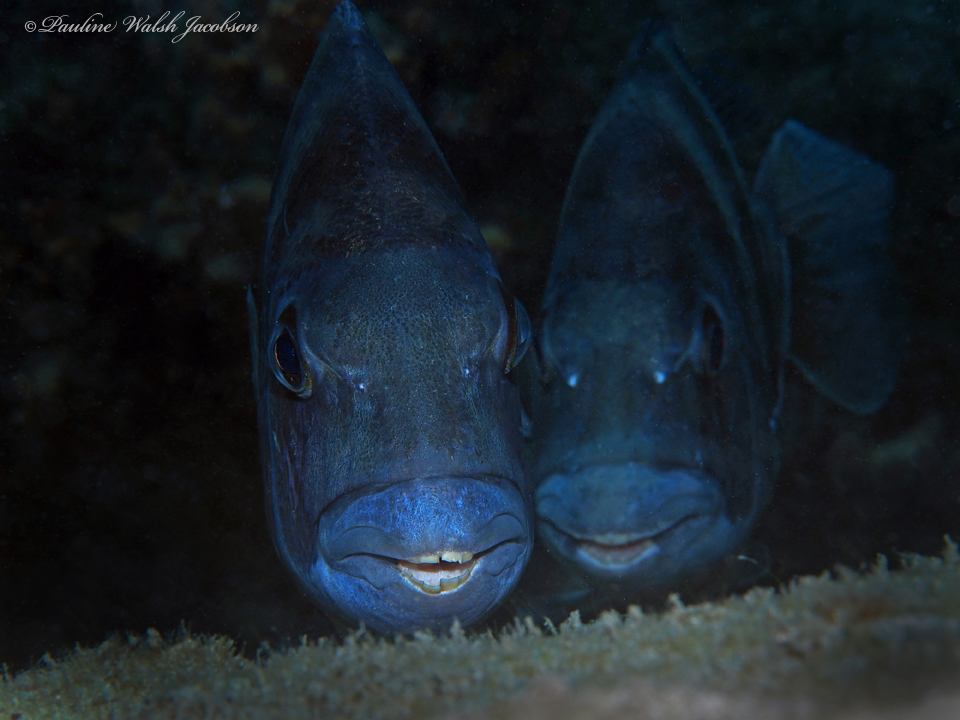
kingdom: Animalia
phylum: Chordata
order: Perciformes
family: Sparidae
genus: Archosargus
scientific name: Archosargus probatocephalus
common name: Sheepshead
